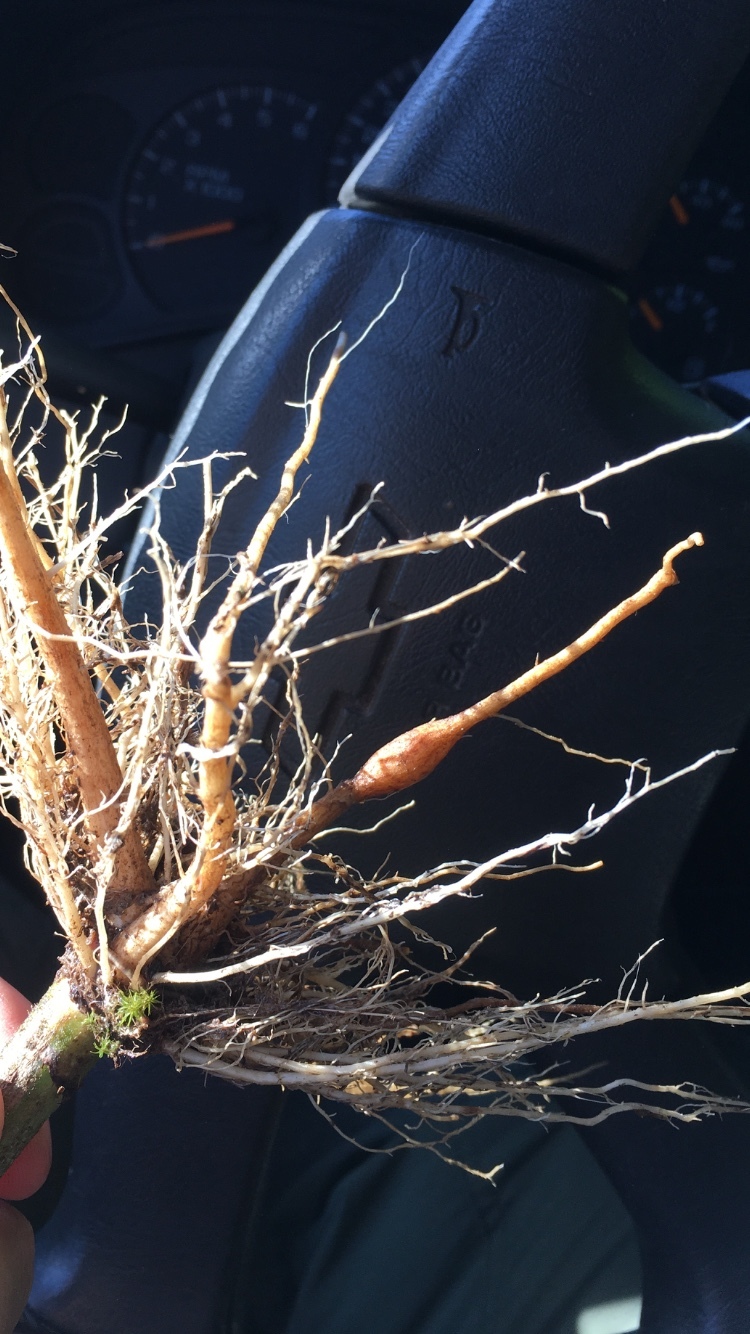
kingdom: Plantae
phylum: Tracheophyta
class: Magnoliopsida
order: Asterales
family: Asteraceae
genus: Cirsium
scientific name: Cirsium engelmannii
